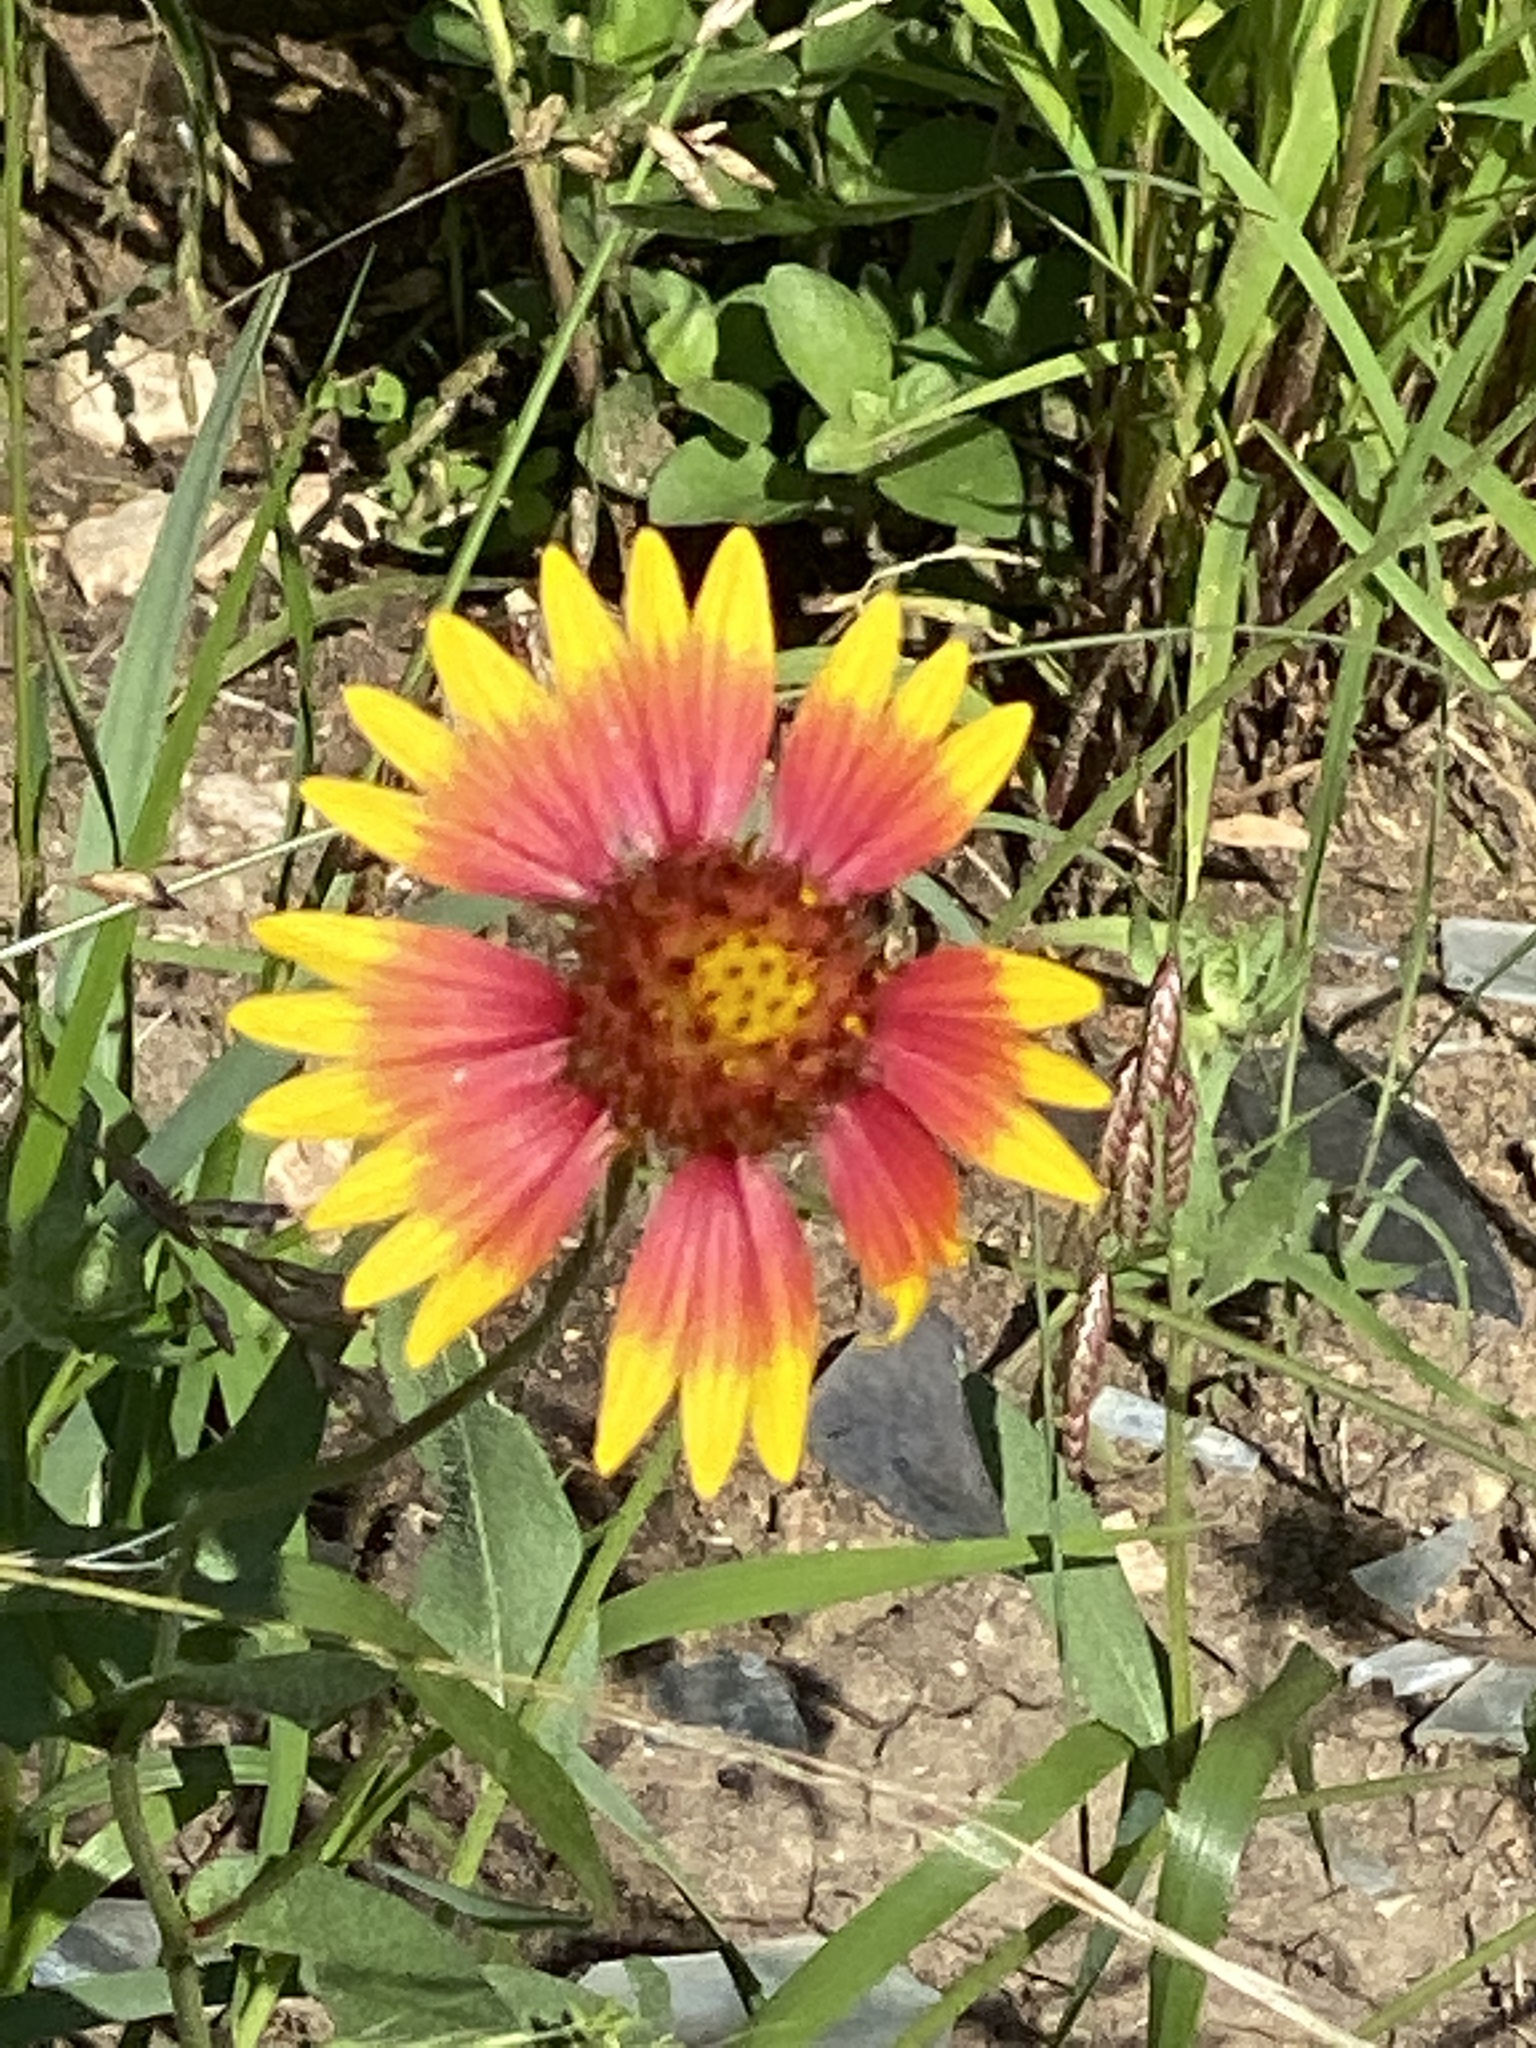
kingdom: Plantae
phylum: Tracheophyta
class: Magnoliopsida
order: Asterales
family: Asteraceae
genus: Gaillardia
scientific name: Gaillardia pulchella
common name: Firewheel
